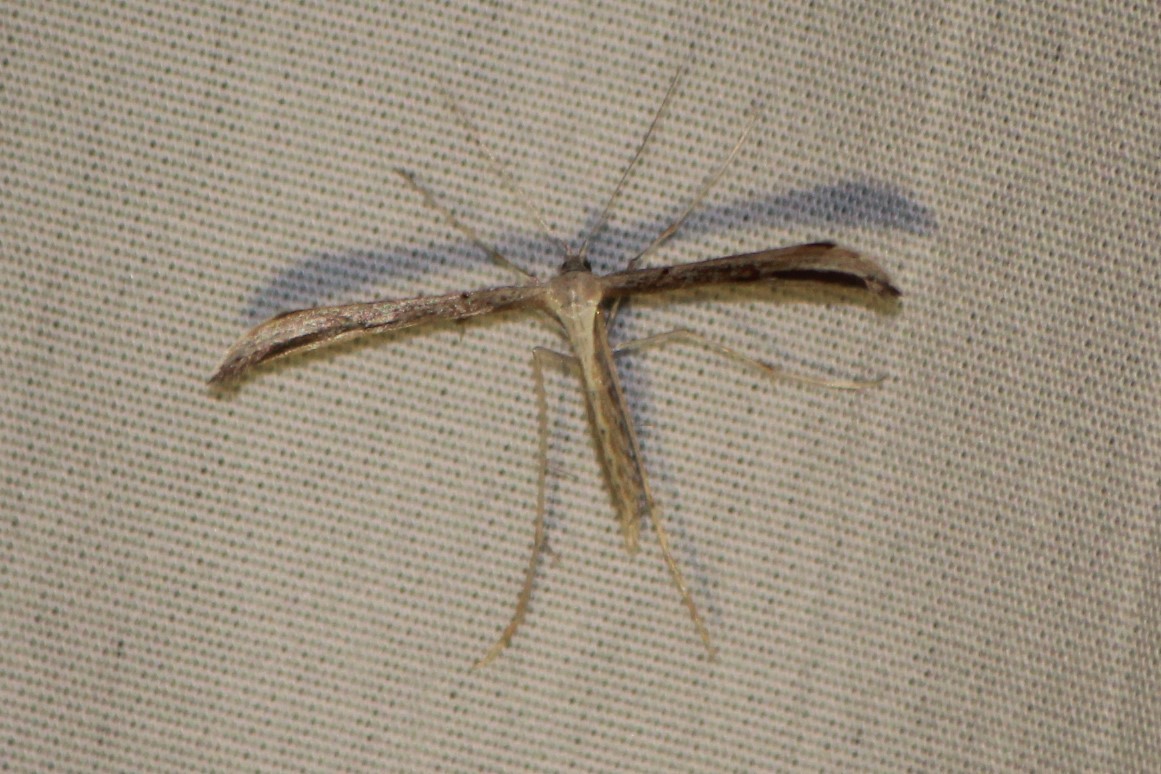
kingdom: Animalia
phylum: Arthropoda
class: Insecta
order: Lepidoptera
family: Pterophoridae
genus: Emmelina
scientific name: Emmelina monodactyla
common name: Common plume
